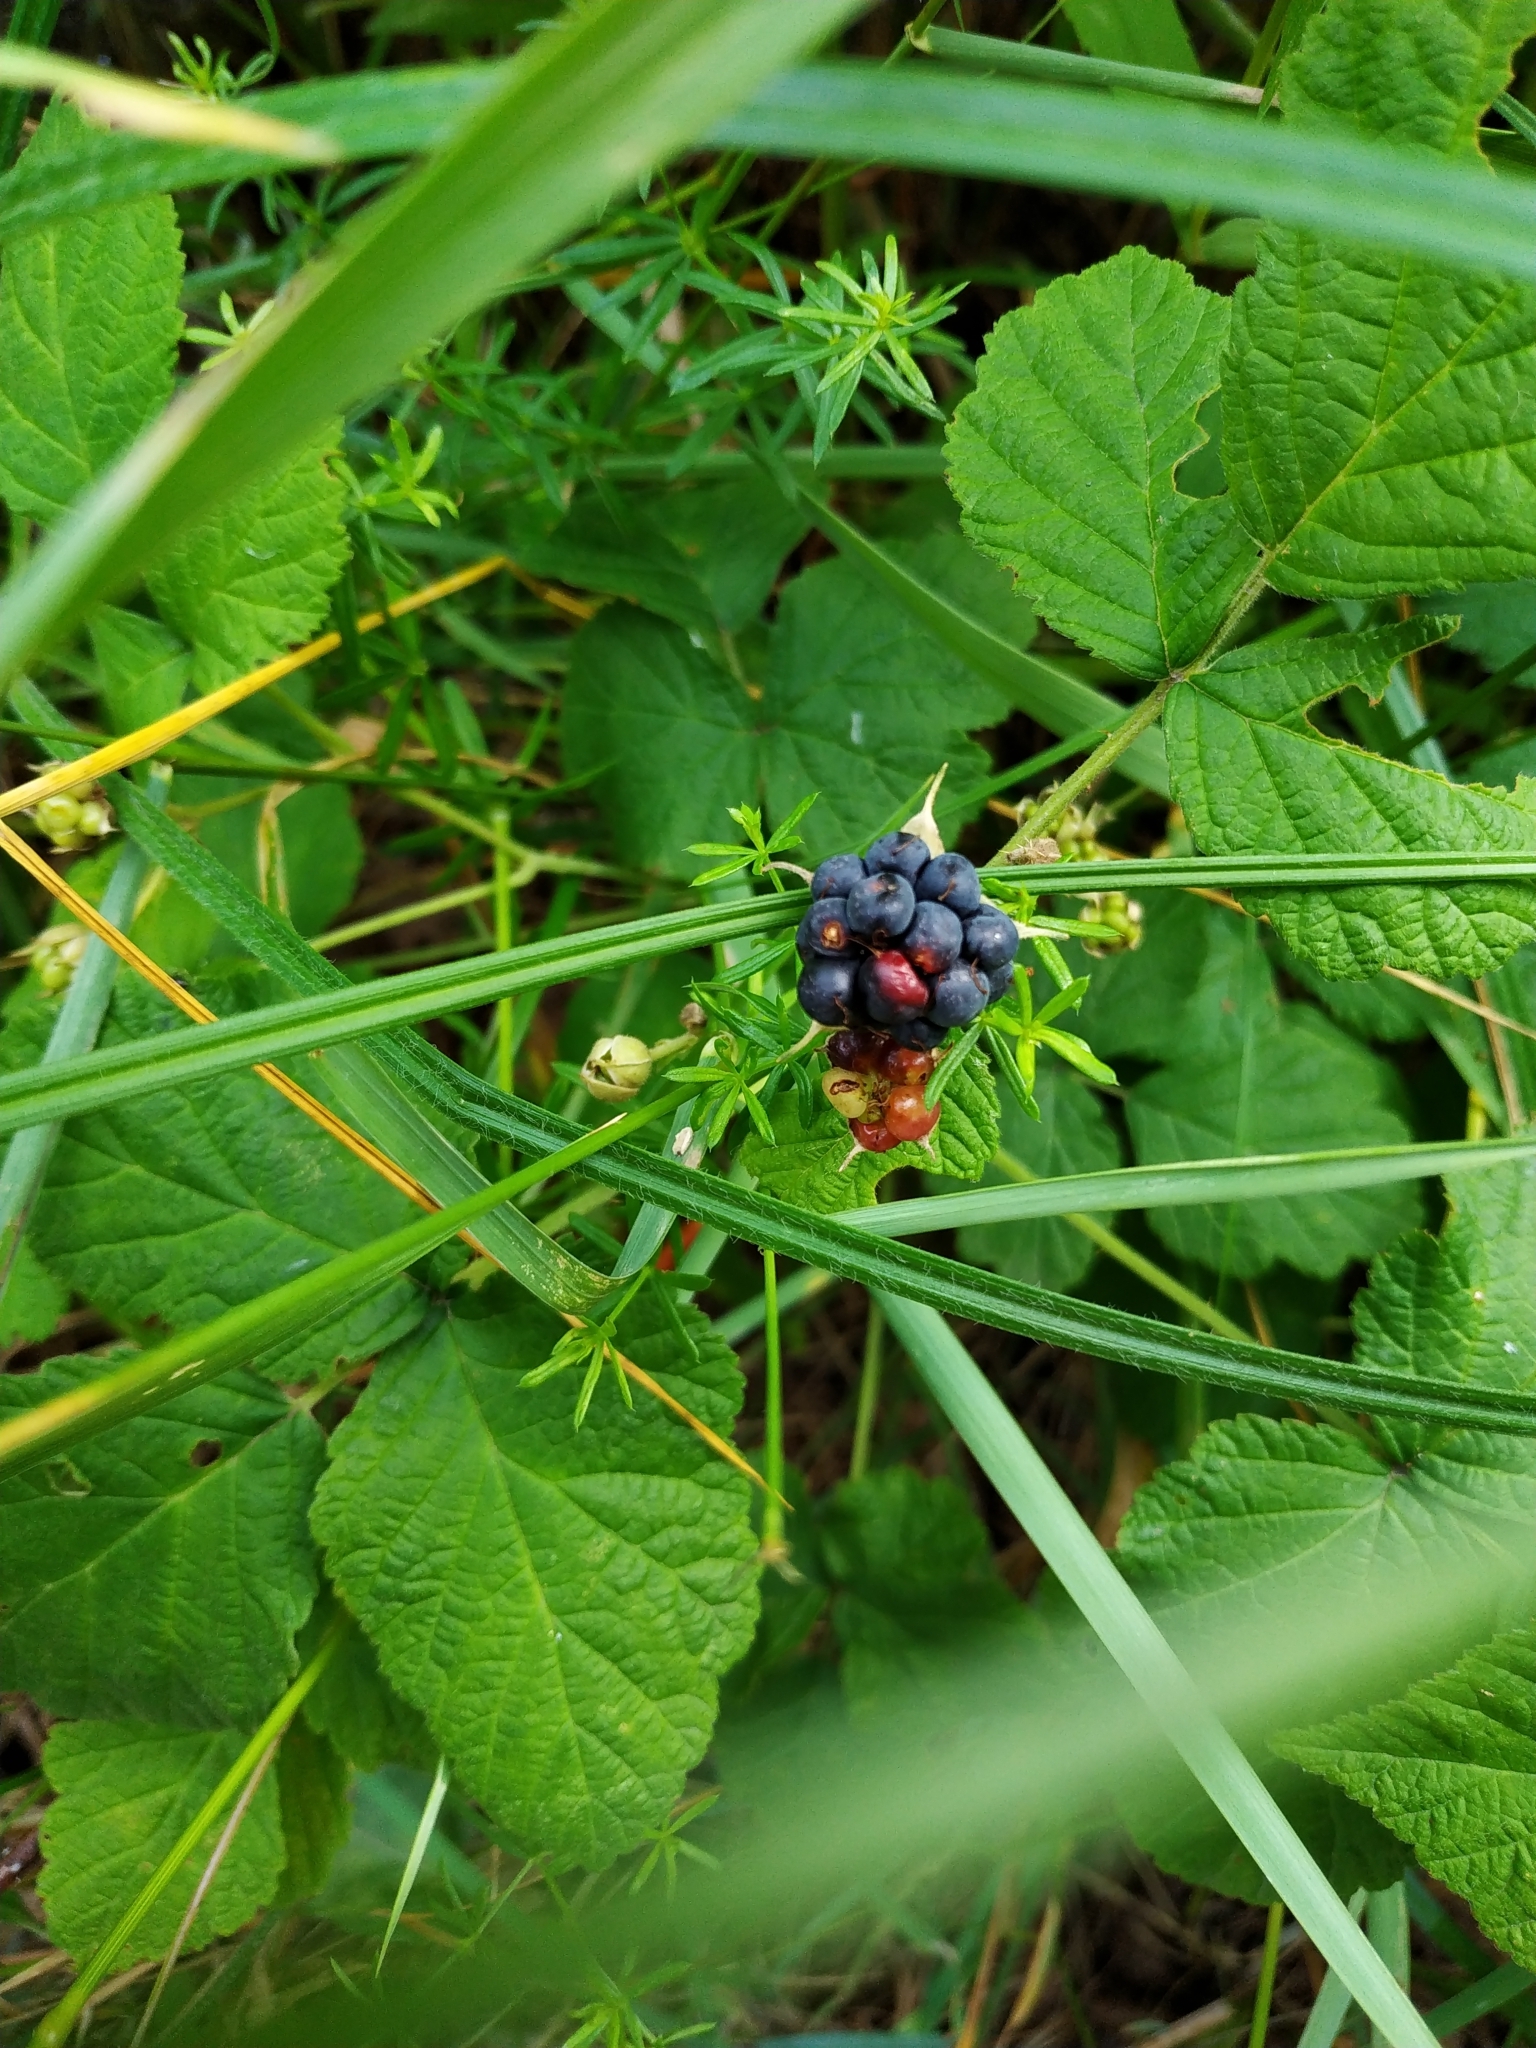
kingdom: Plantae
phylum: Tracheophyta
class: Magnoliopsida
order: Rosales
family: Rosaceae
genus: Rubus
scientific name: Rubus caesius
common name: Dewberry
